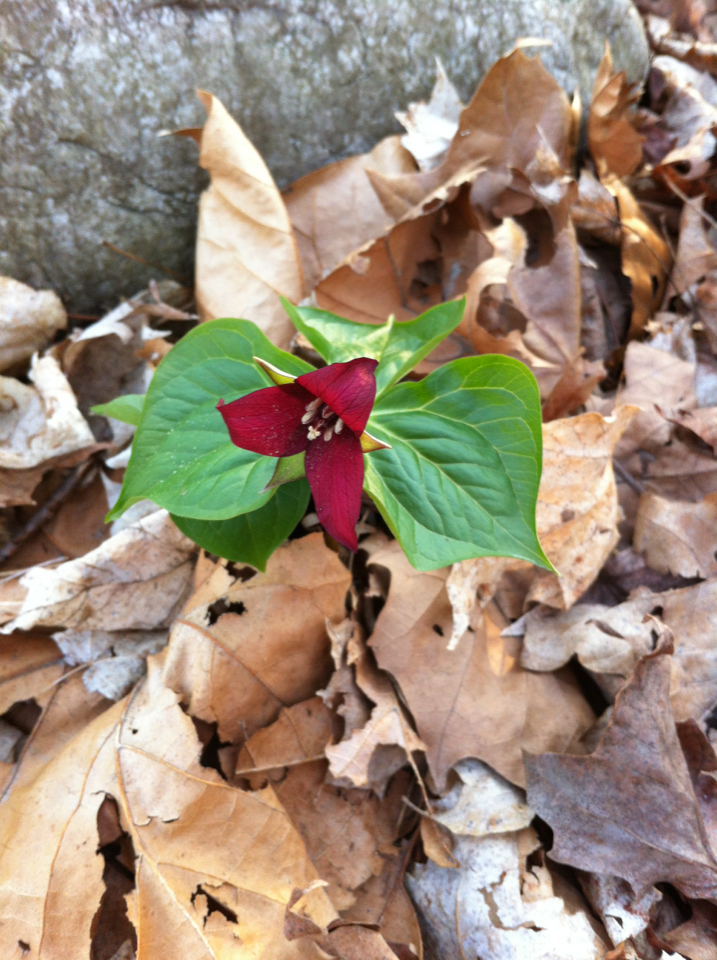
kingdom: Plantae
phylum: Tracheophyta
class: Liliopsida
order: Liliales
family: Melanthiaceae
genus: Trillium
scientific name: Trillium erectum
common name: Purple trillium
